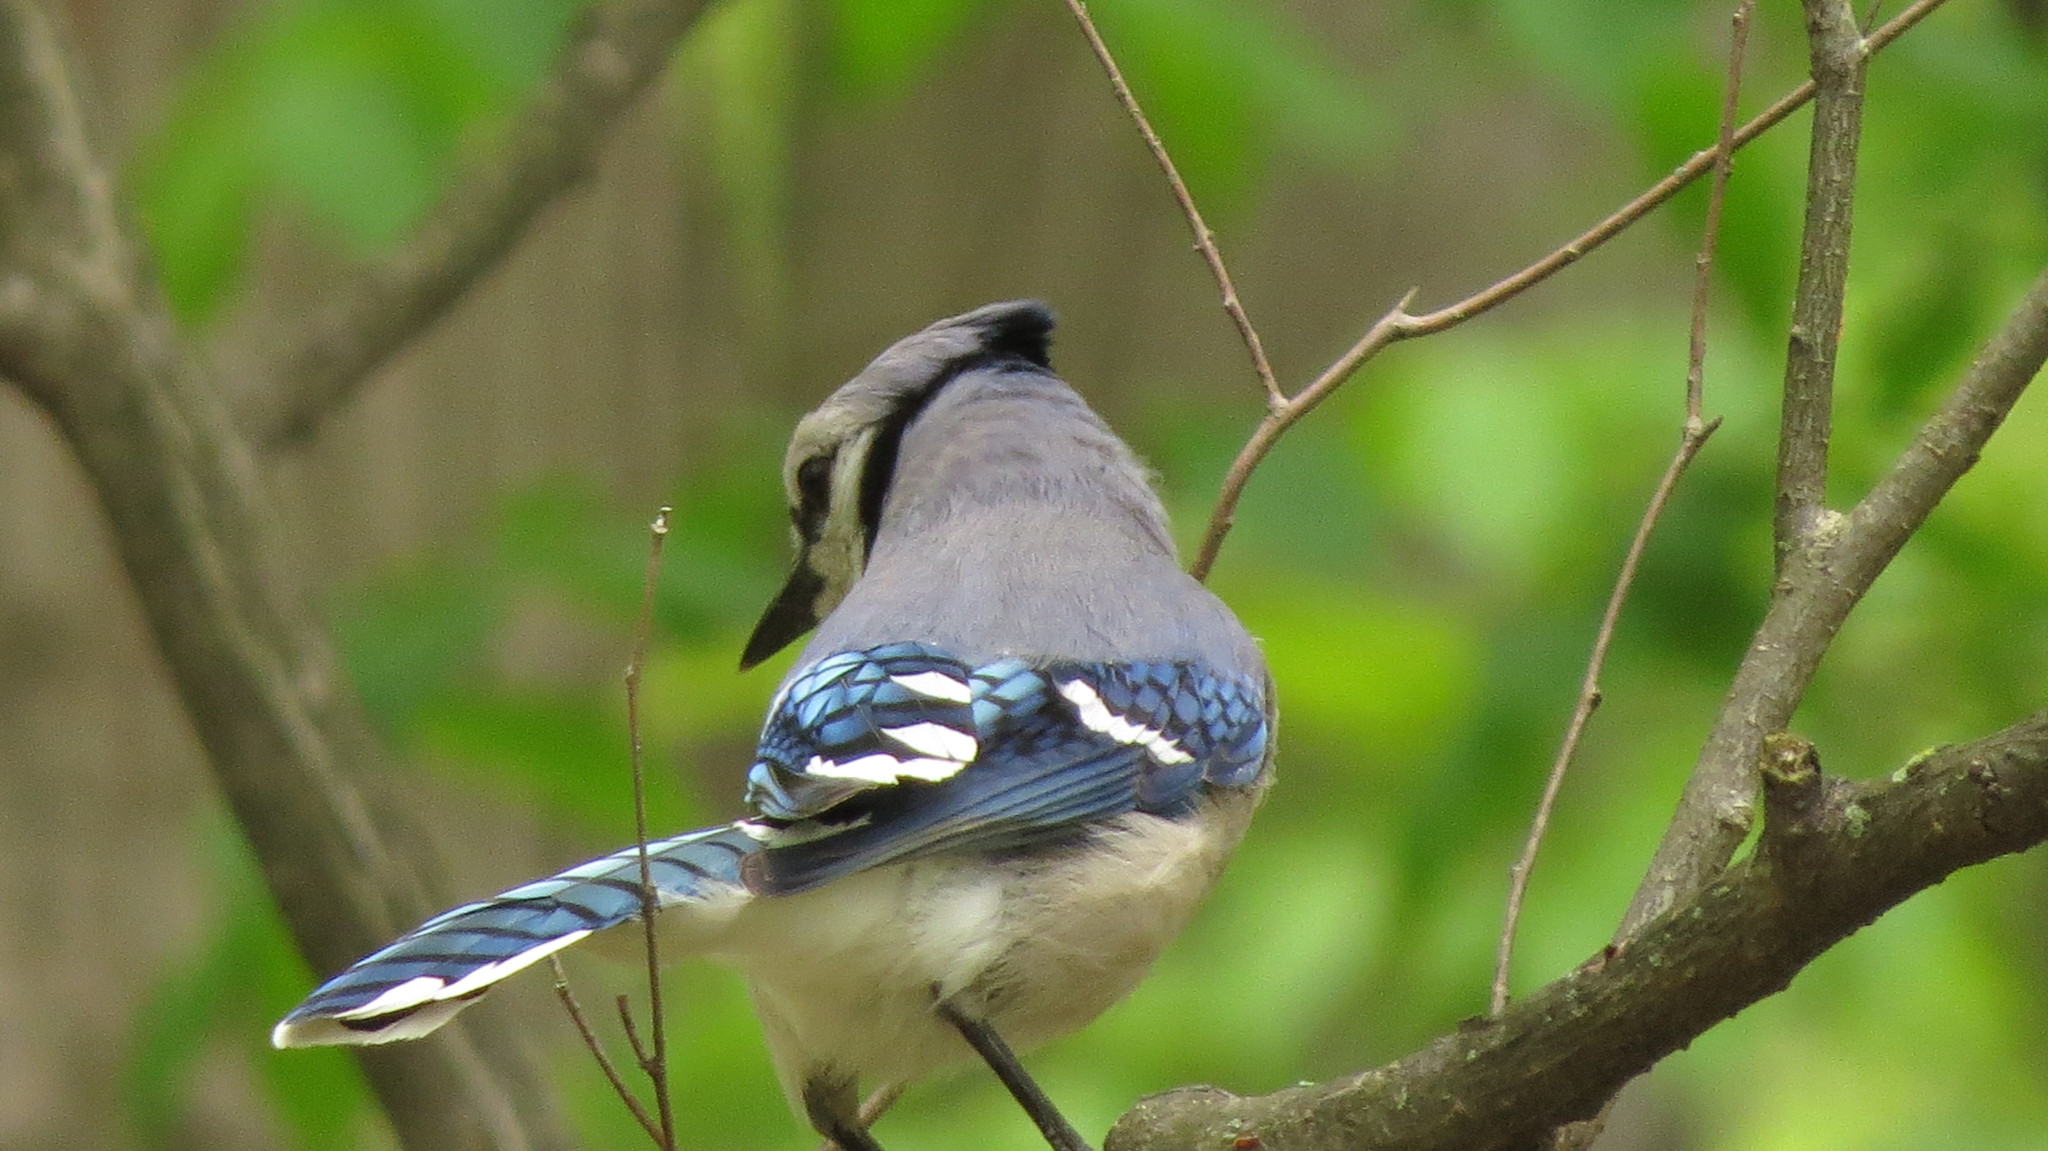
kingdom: Animalia
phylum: Chordata
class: Aves
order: Passeriformes
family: Corvidae
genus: Cyanocitta
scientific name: Cyanocitta cristata
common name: Blue jay
